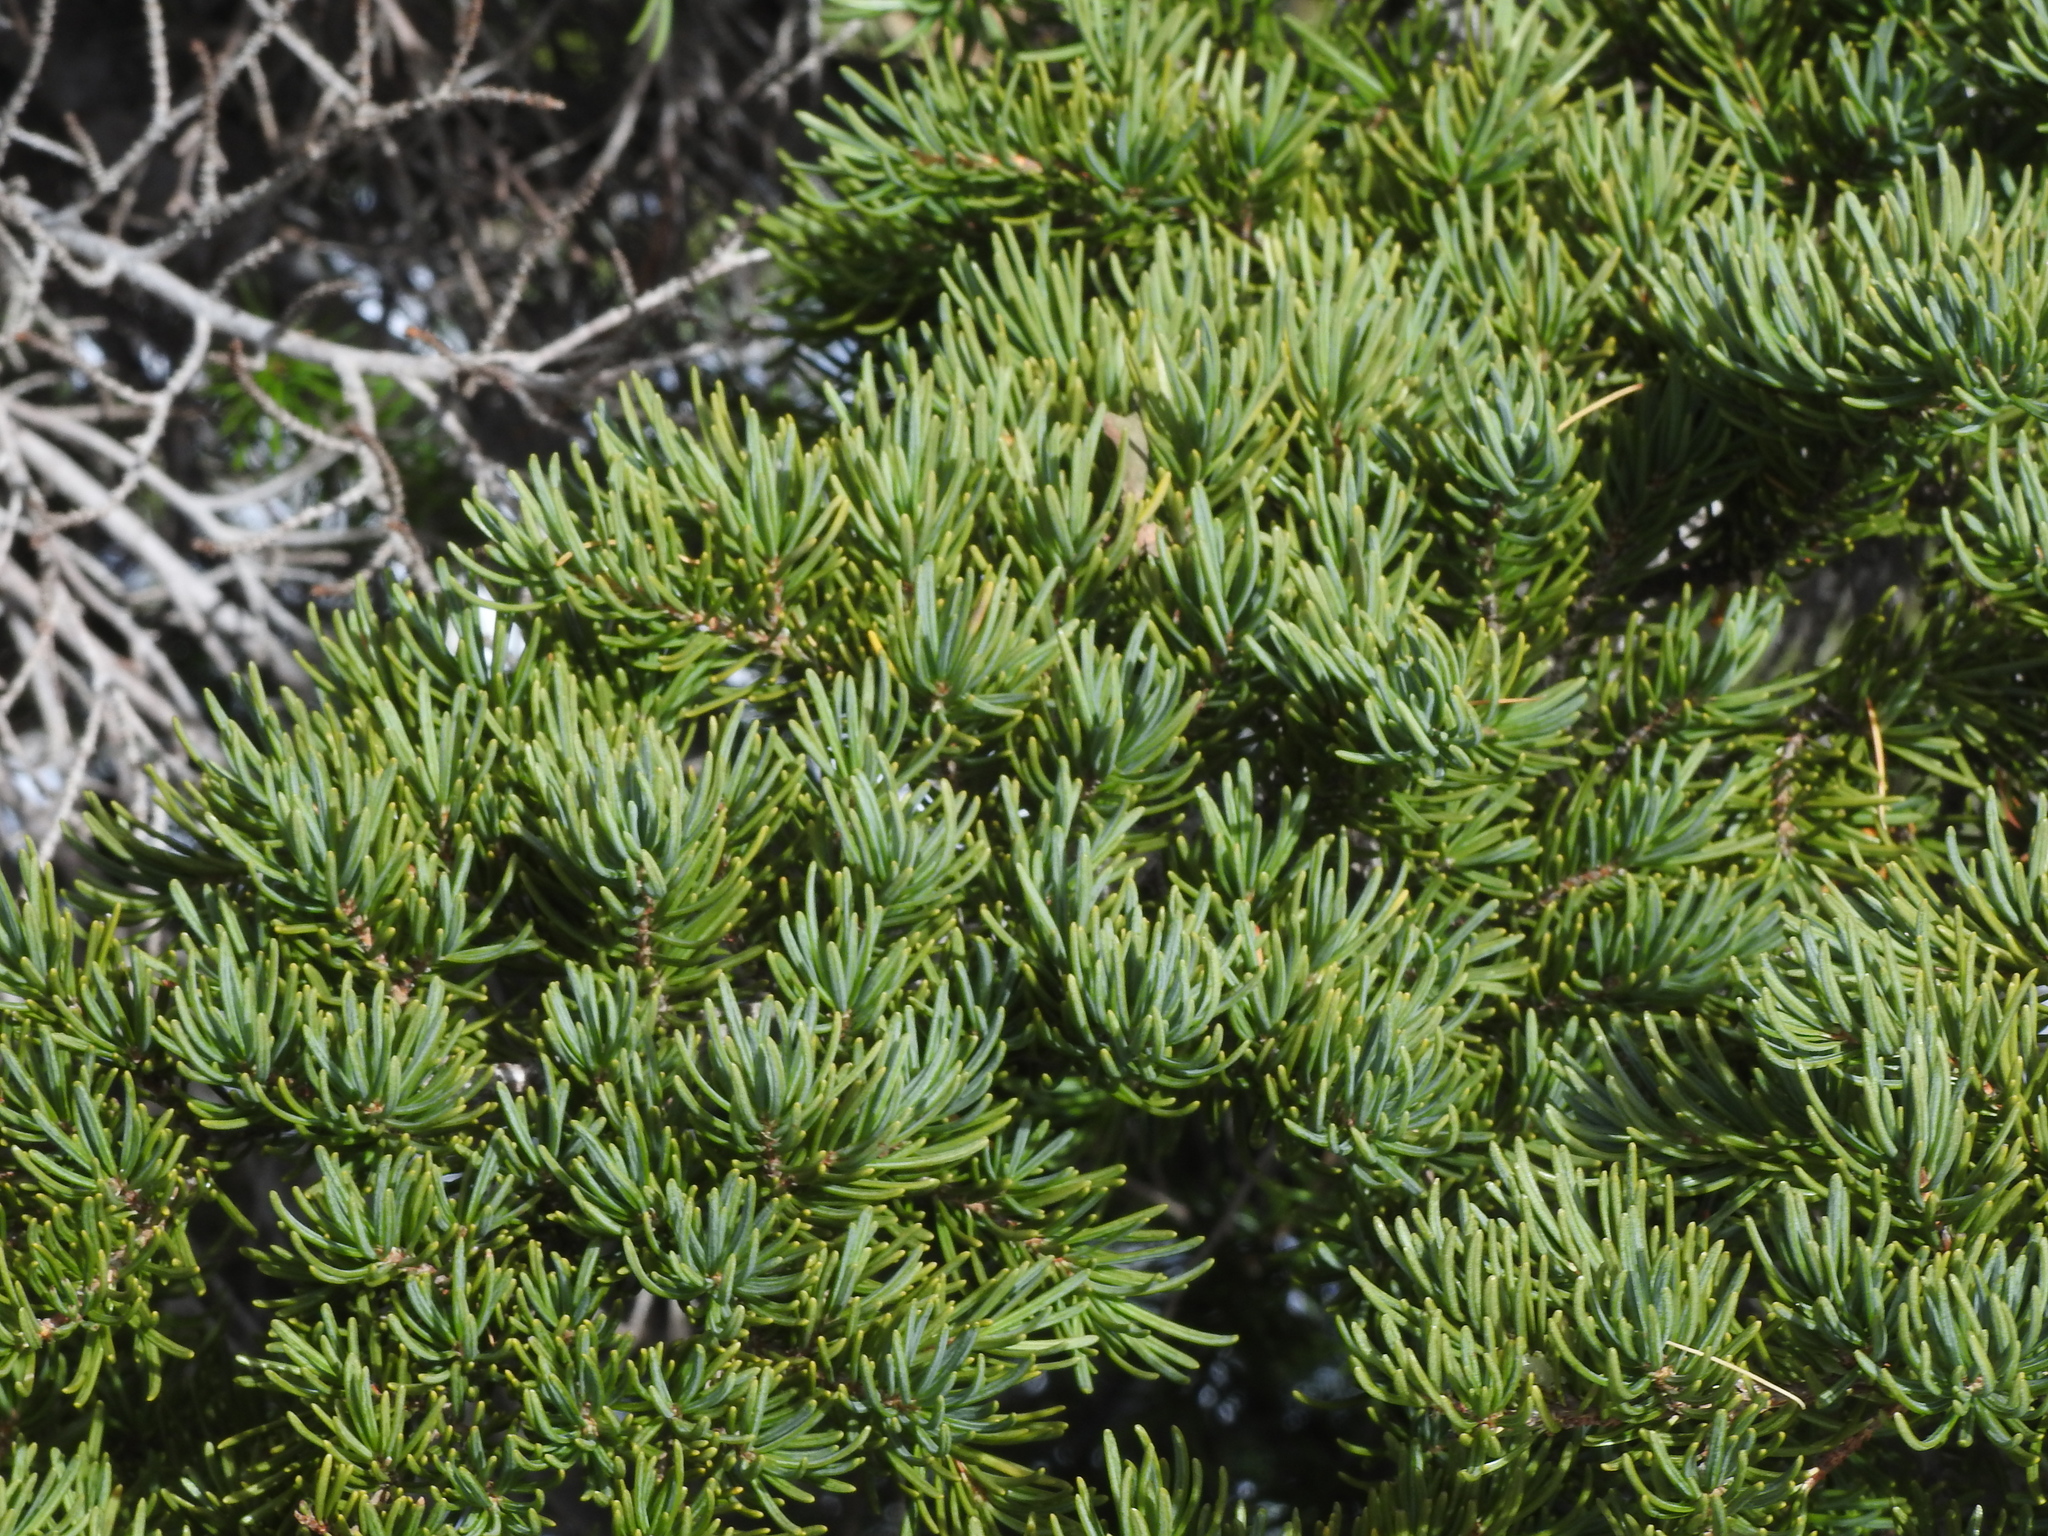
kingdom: Plantae
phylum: Tracheophyta
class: Pinopsida
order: Pinales
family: Pinaceae
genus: Tsuga
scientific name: Tsuga mertensiana
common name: Mountain hemlock
